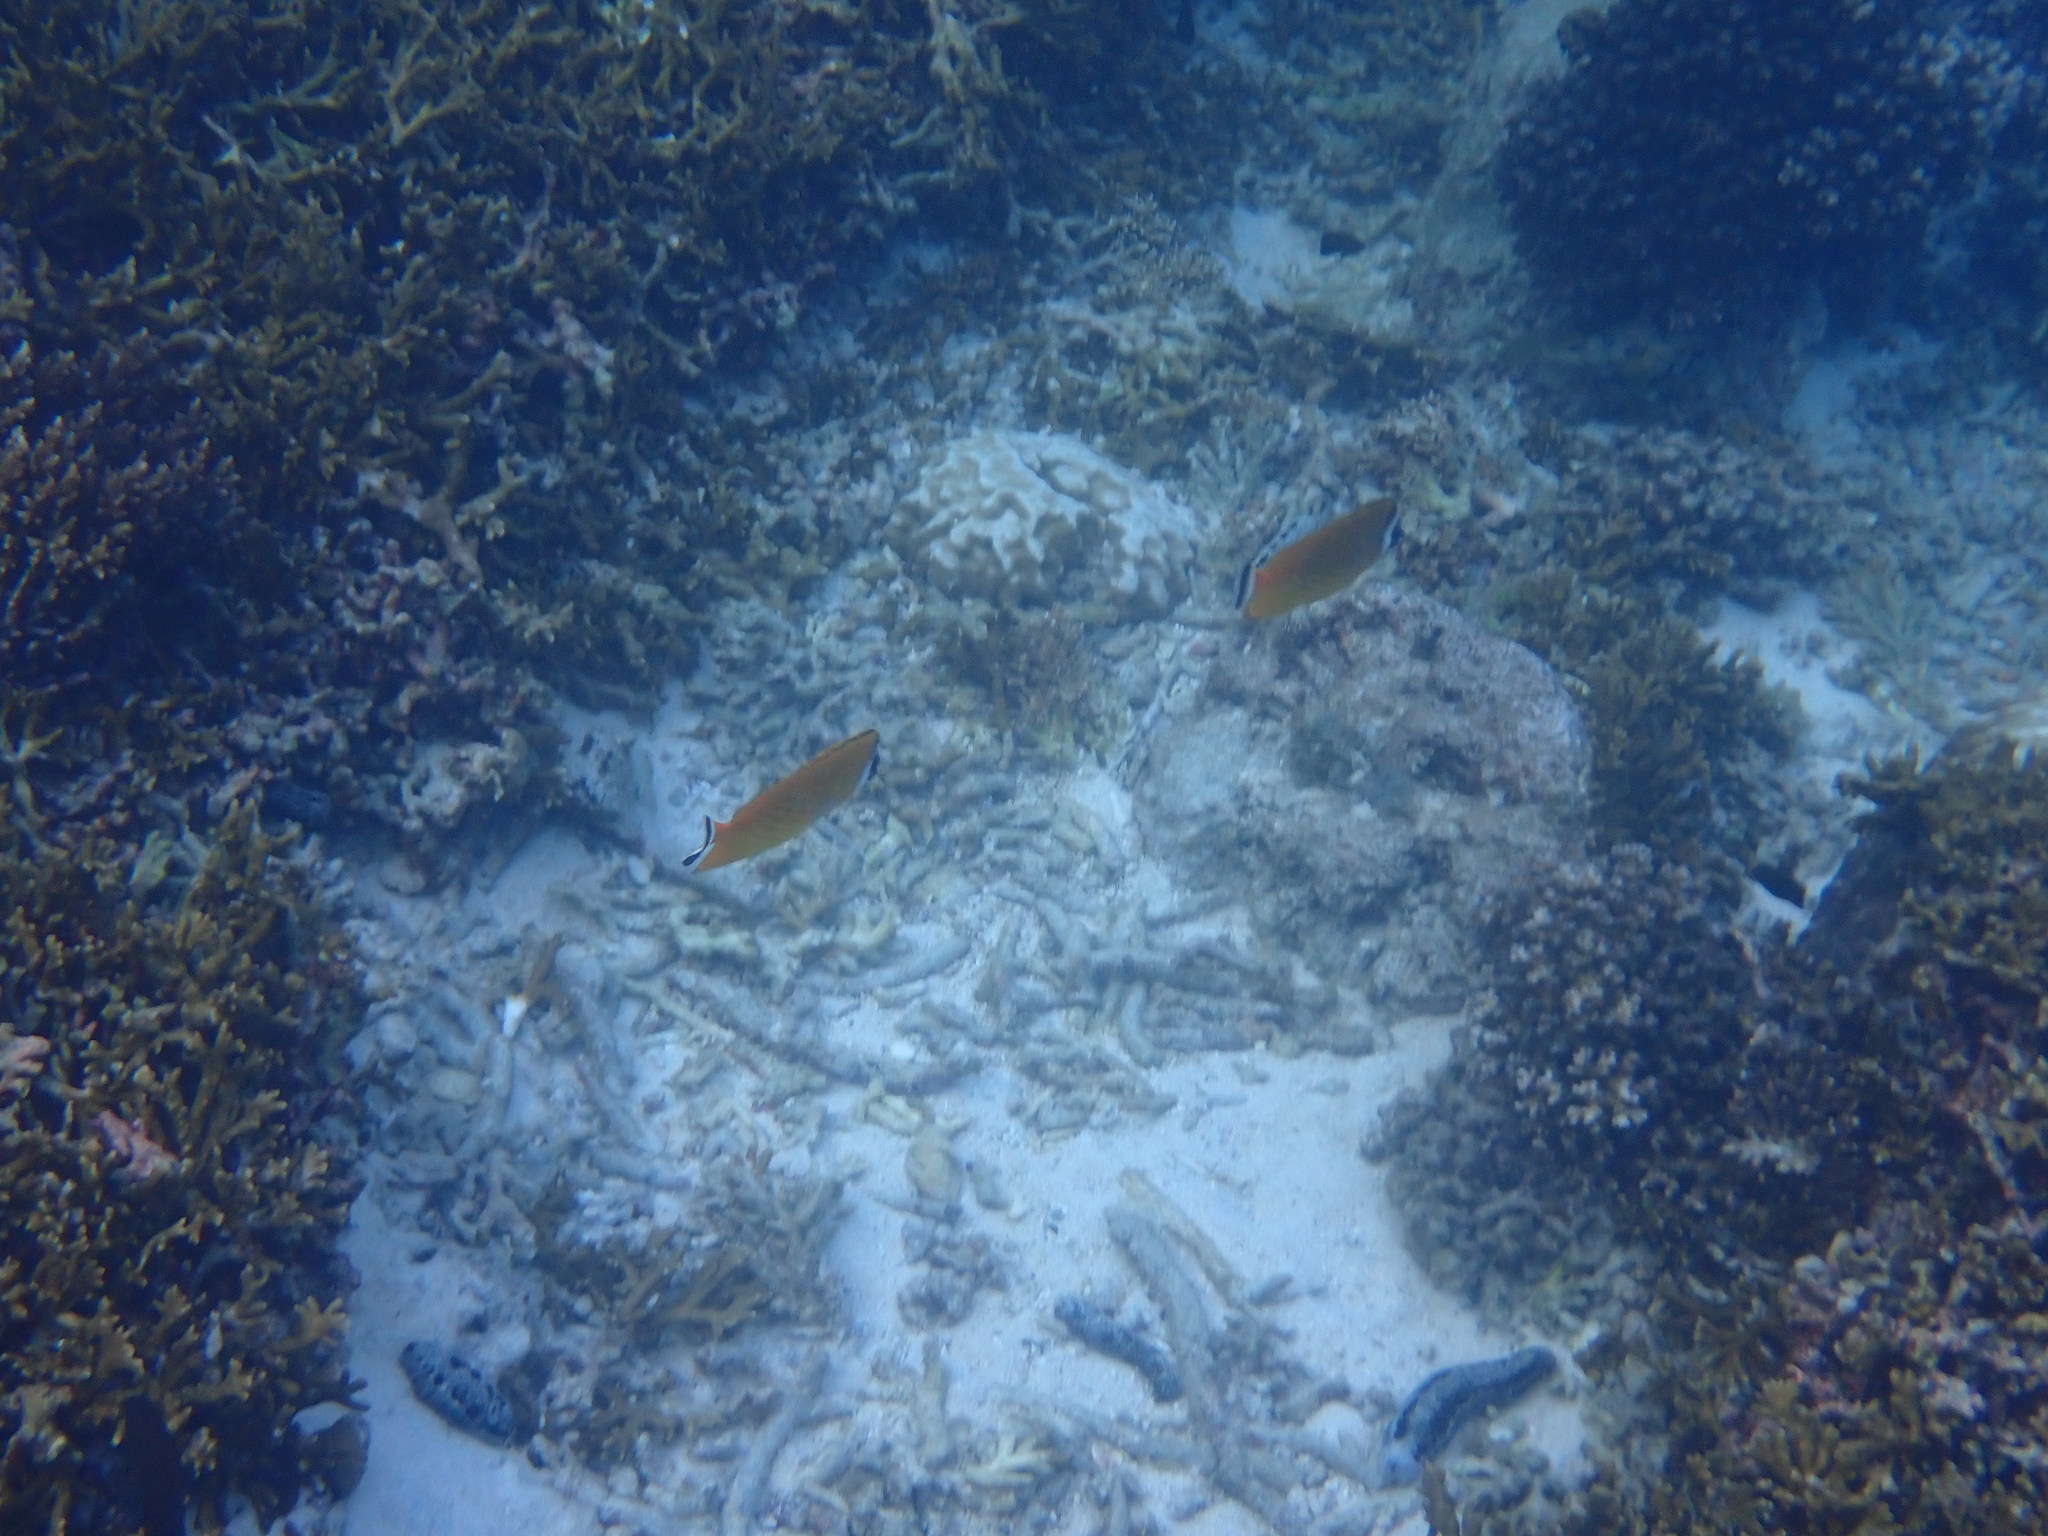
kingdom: Animalia
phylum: Chordata
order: Perciformes
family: Chaetodontidae
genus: Chaetodon
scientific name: Chaetodon wiebeli
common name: Butterflyfish
